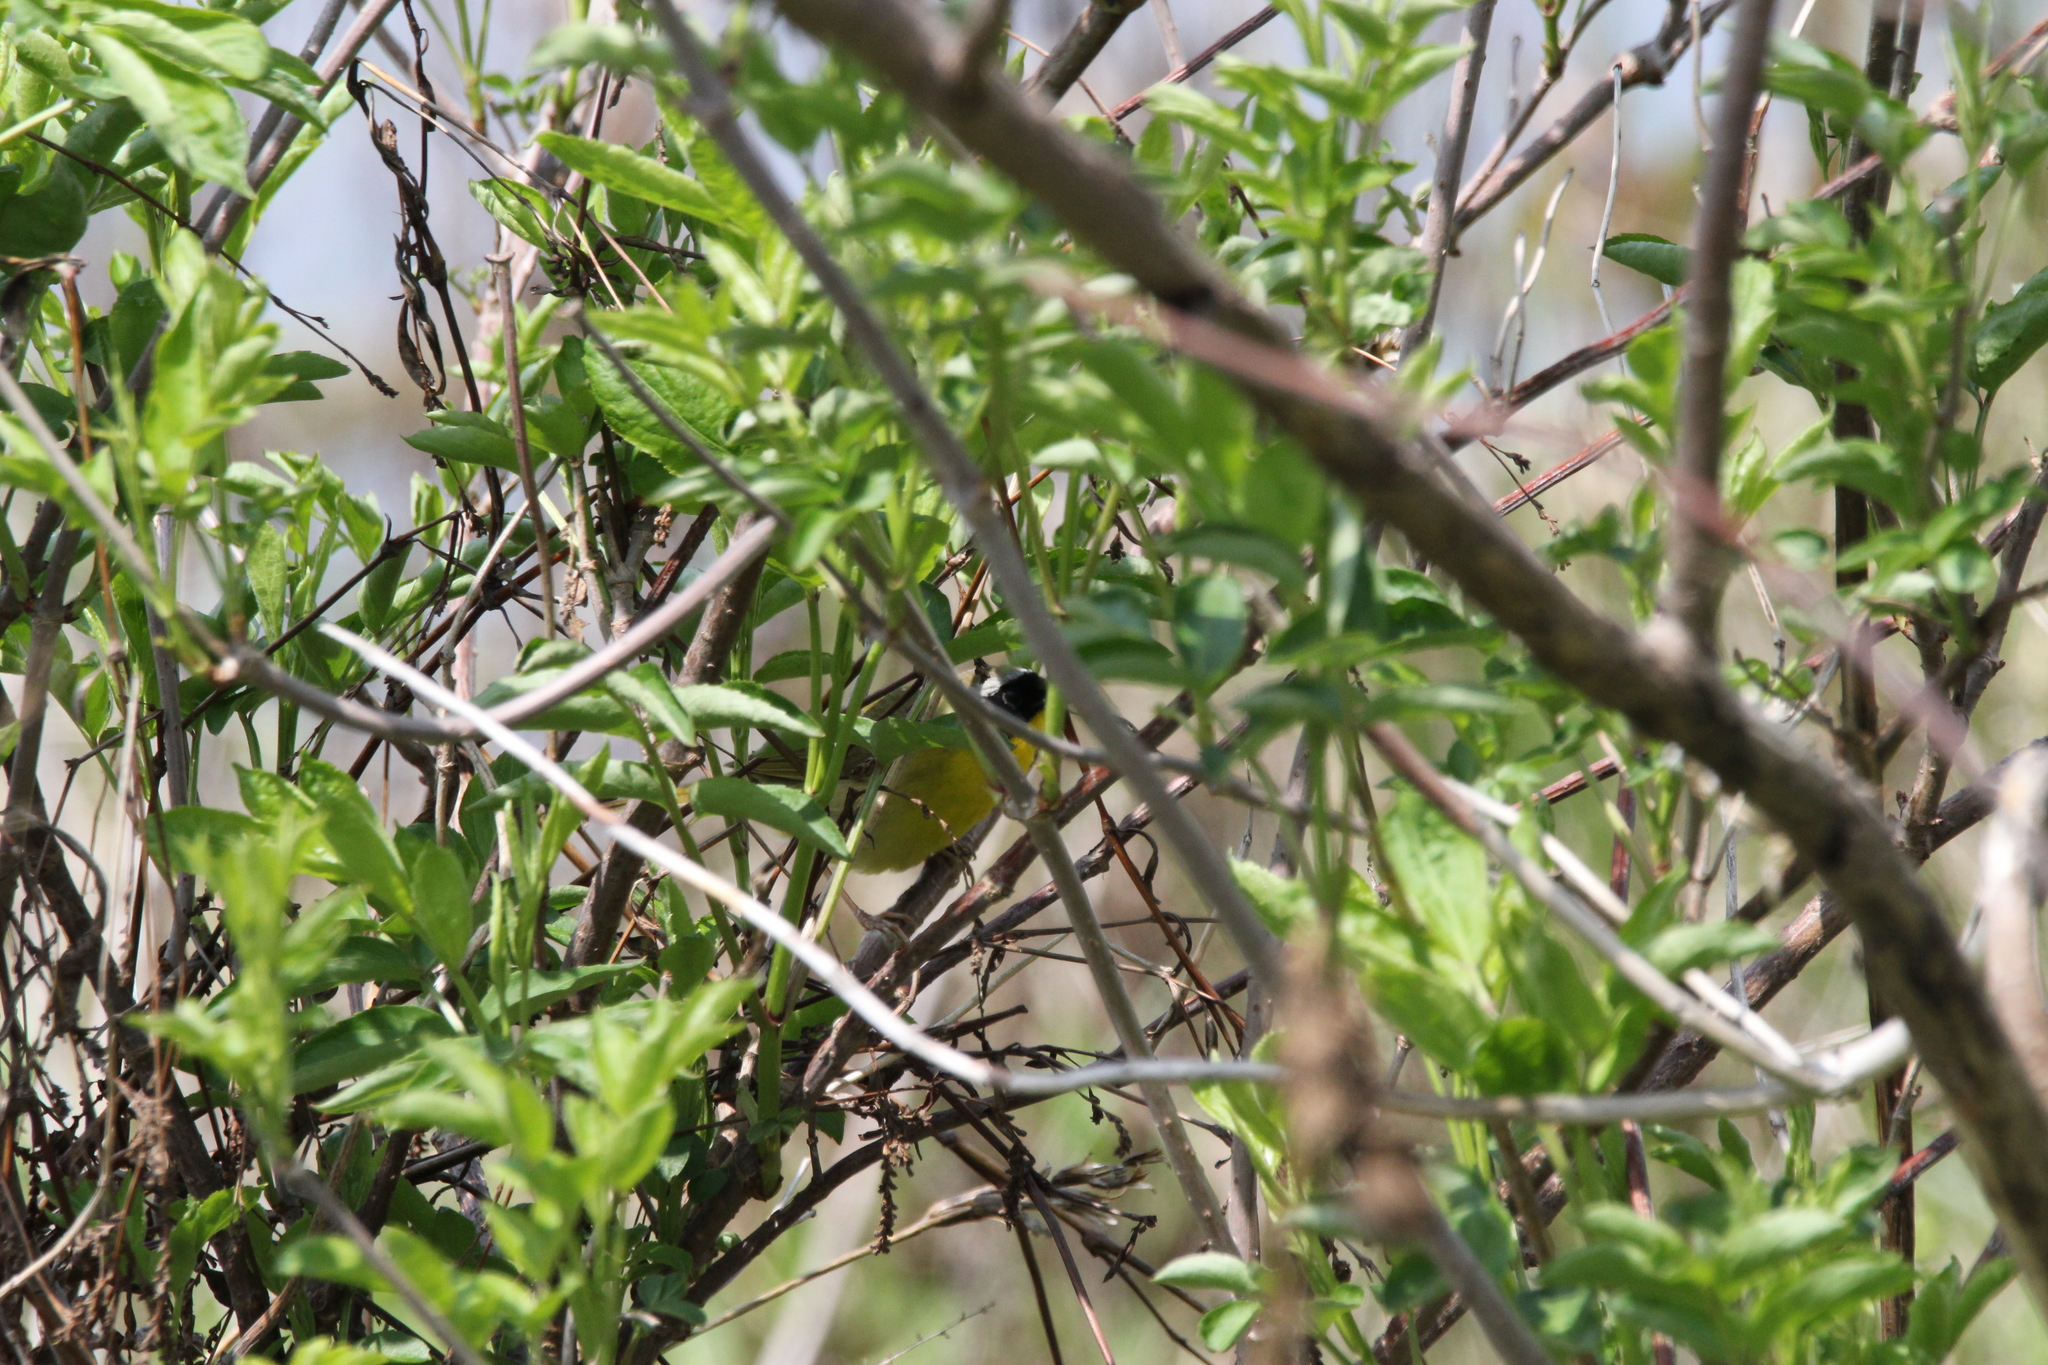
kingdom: Animalia
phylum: Chordata
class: Aves
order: Passeriformes
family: Parulidae
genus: Geothlypis
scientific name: Geothlypis trichas
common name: Common yellowthroat
